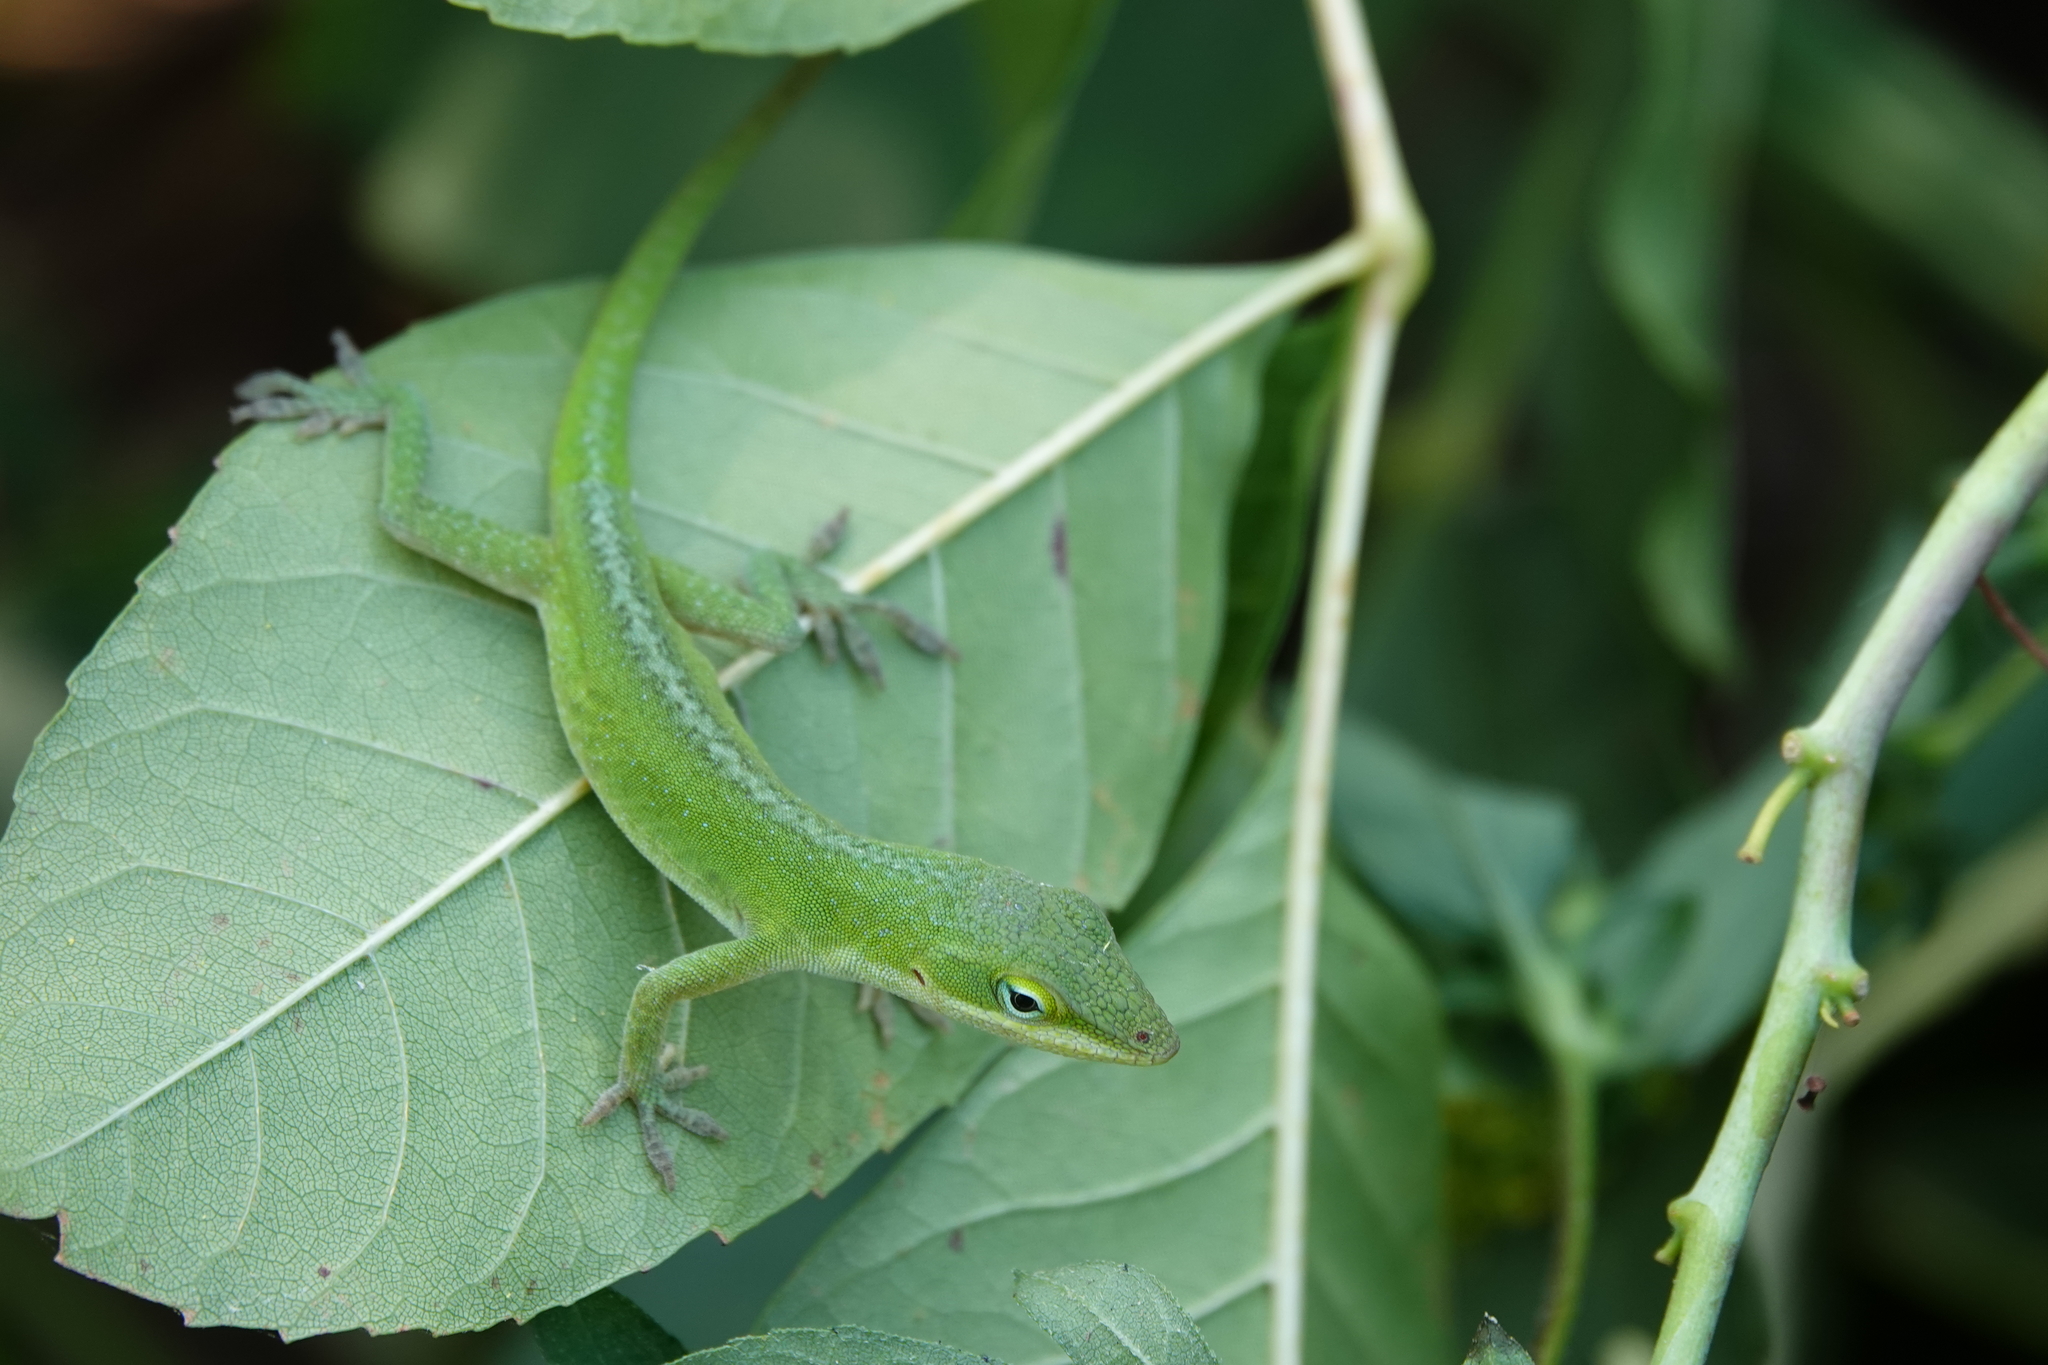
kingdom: Animalia
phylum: Chordata
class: Squamata
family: Dactyloidae
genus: Anolis
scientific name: Anolis carolinensis
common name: Green anole
